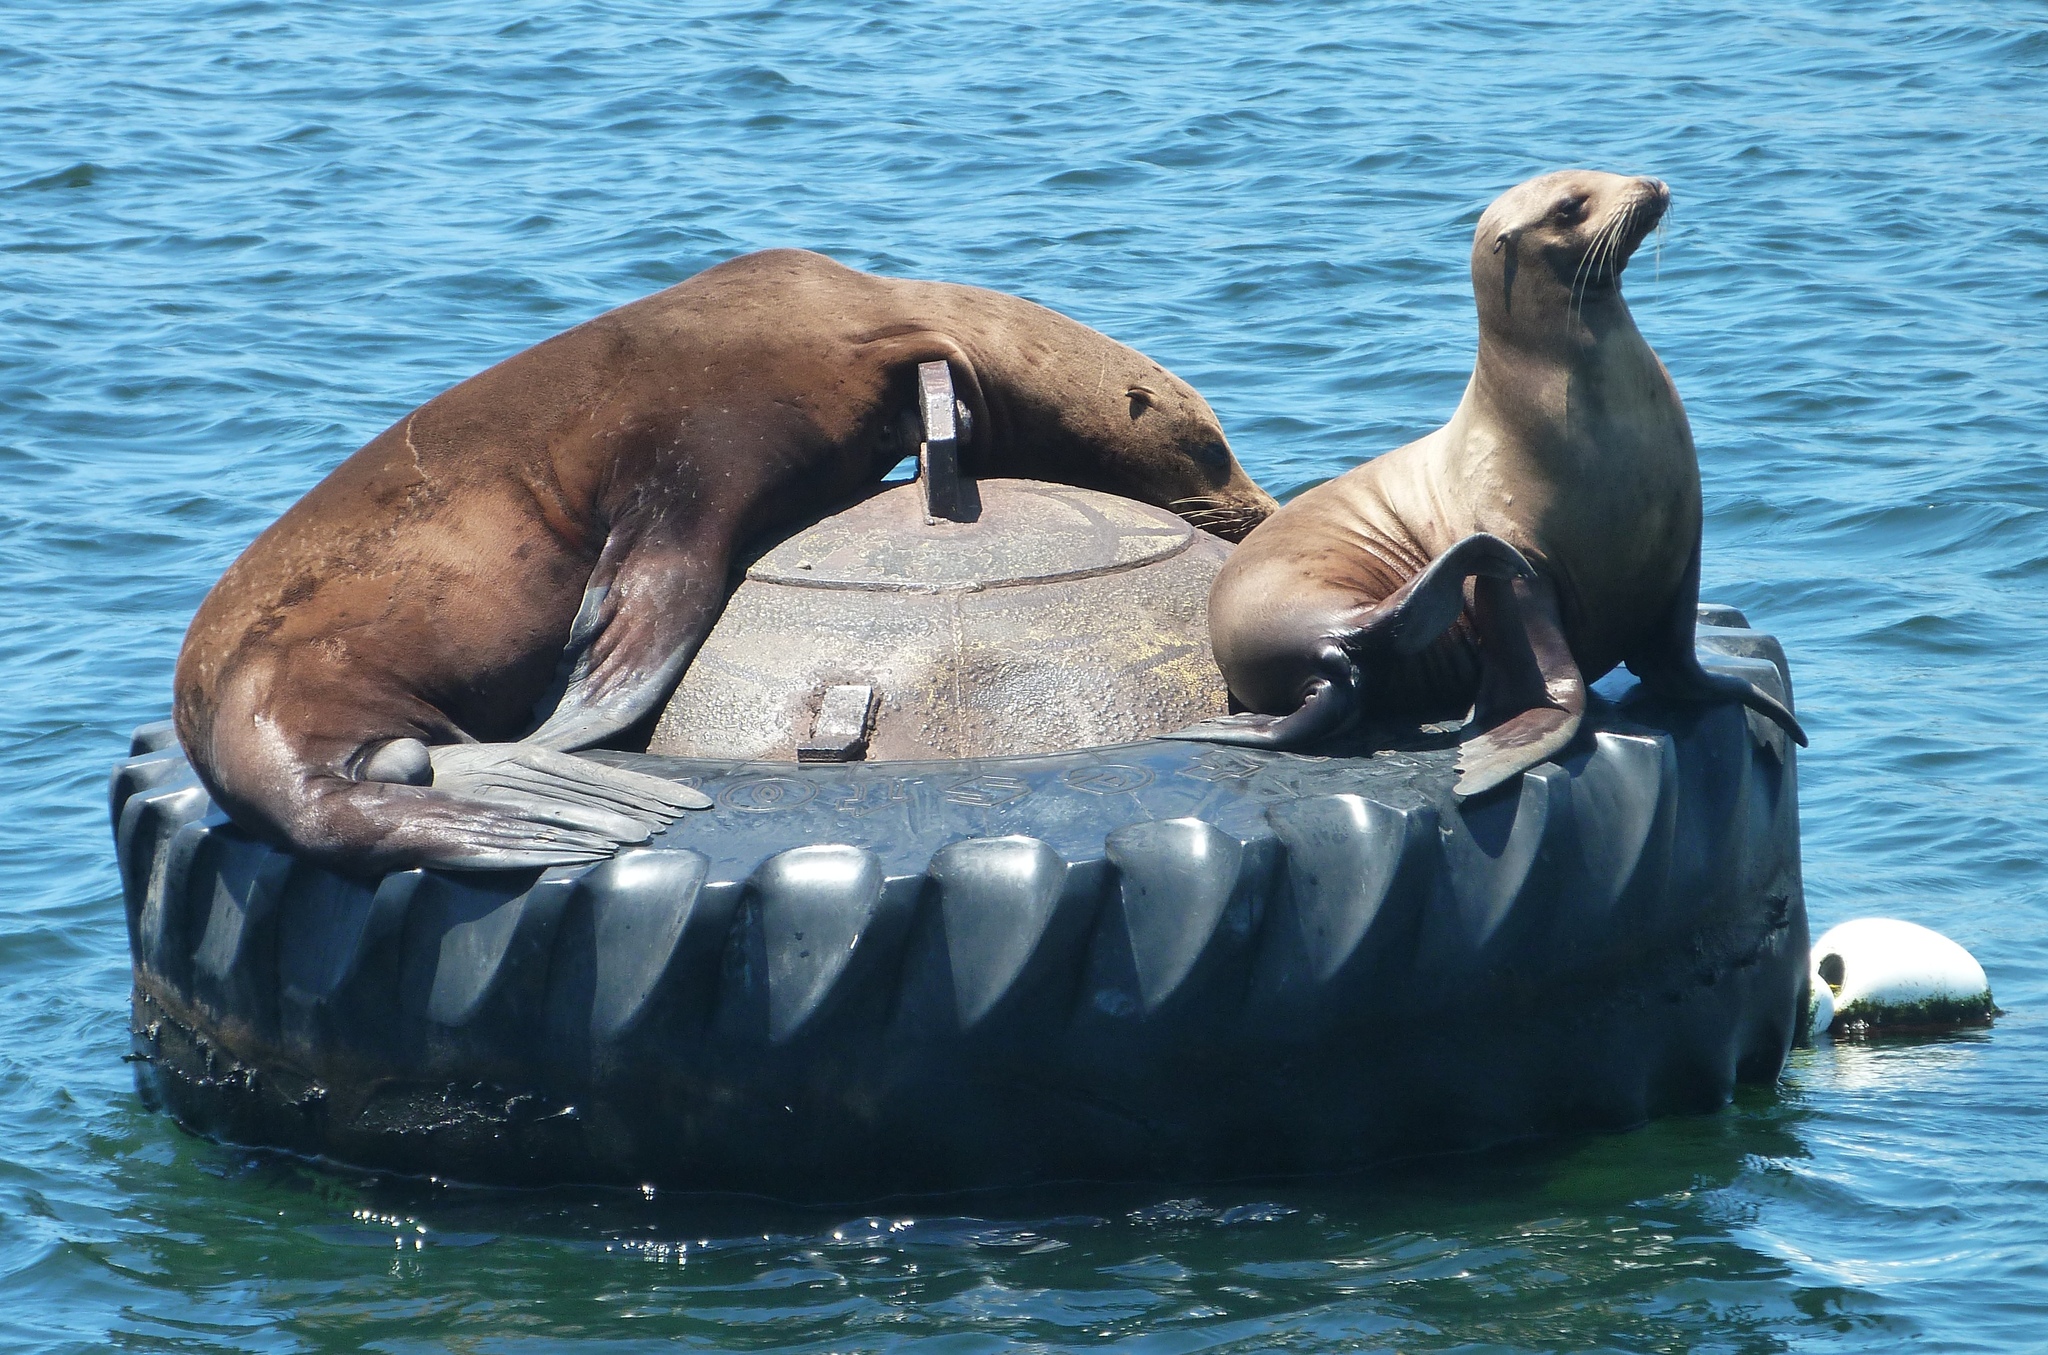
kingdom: Animalia
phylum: Chordata
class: Mammalia
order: Carnivora
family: Otariidae
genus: Zalophus
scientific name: Zalophus californianus
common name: California sea lion
